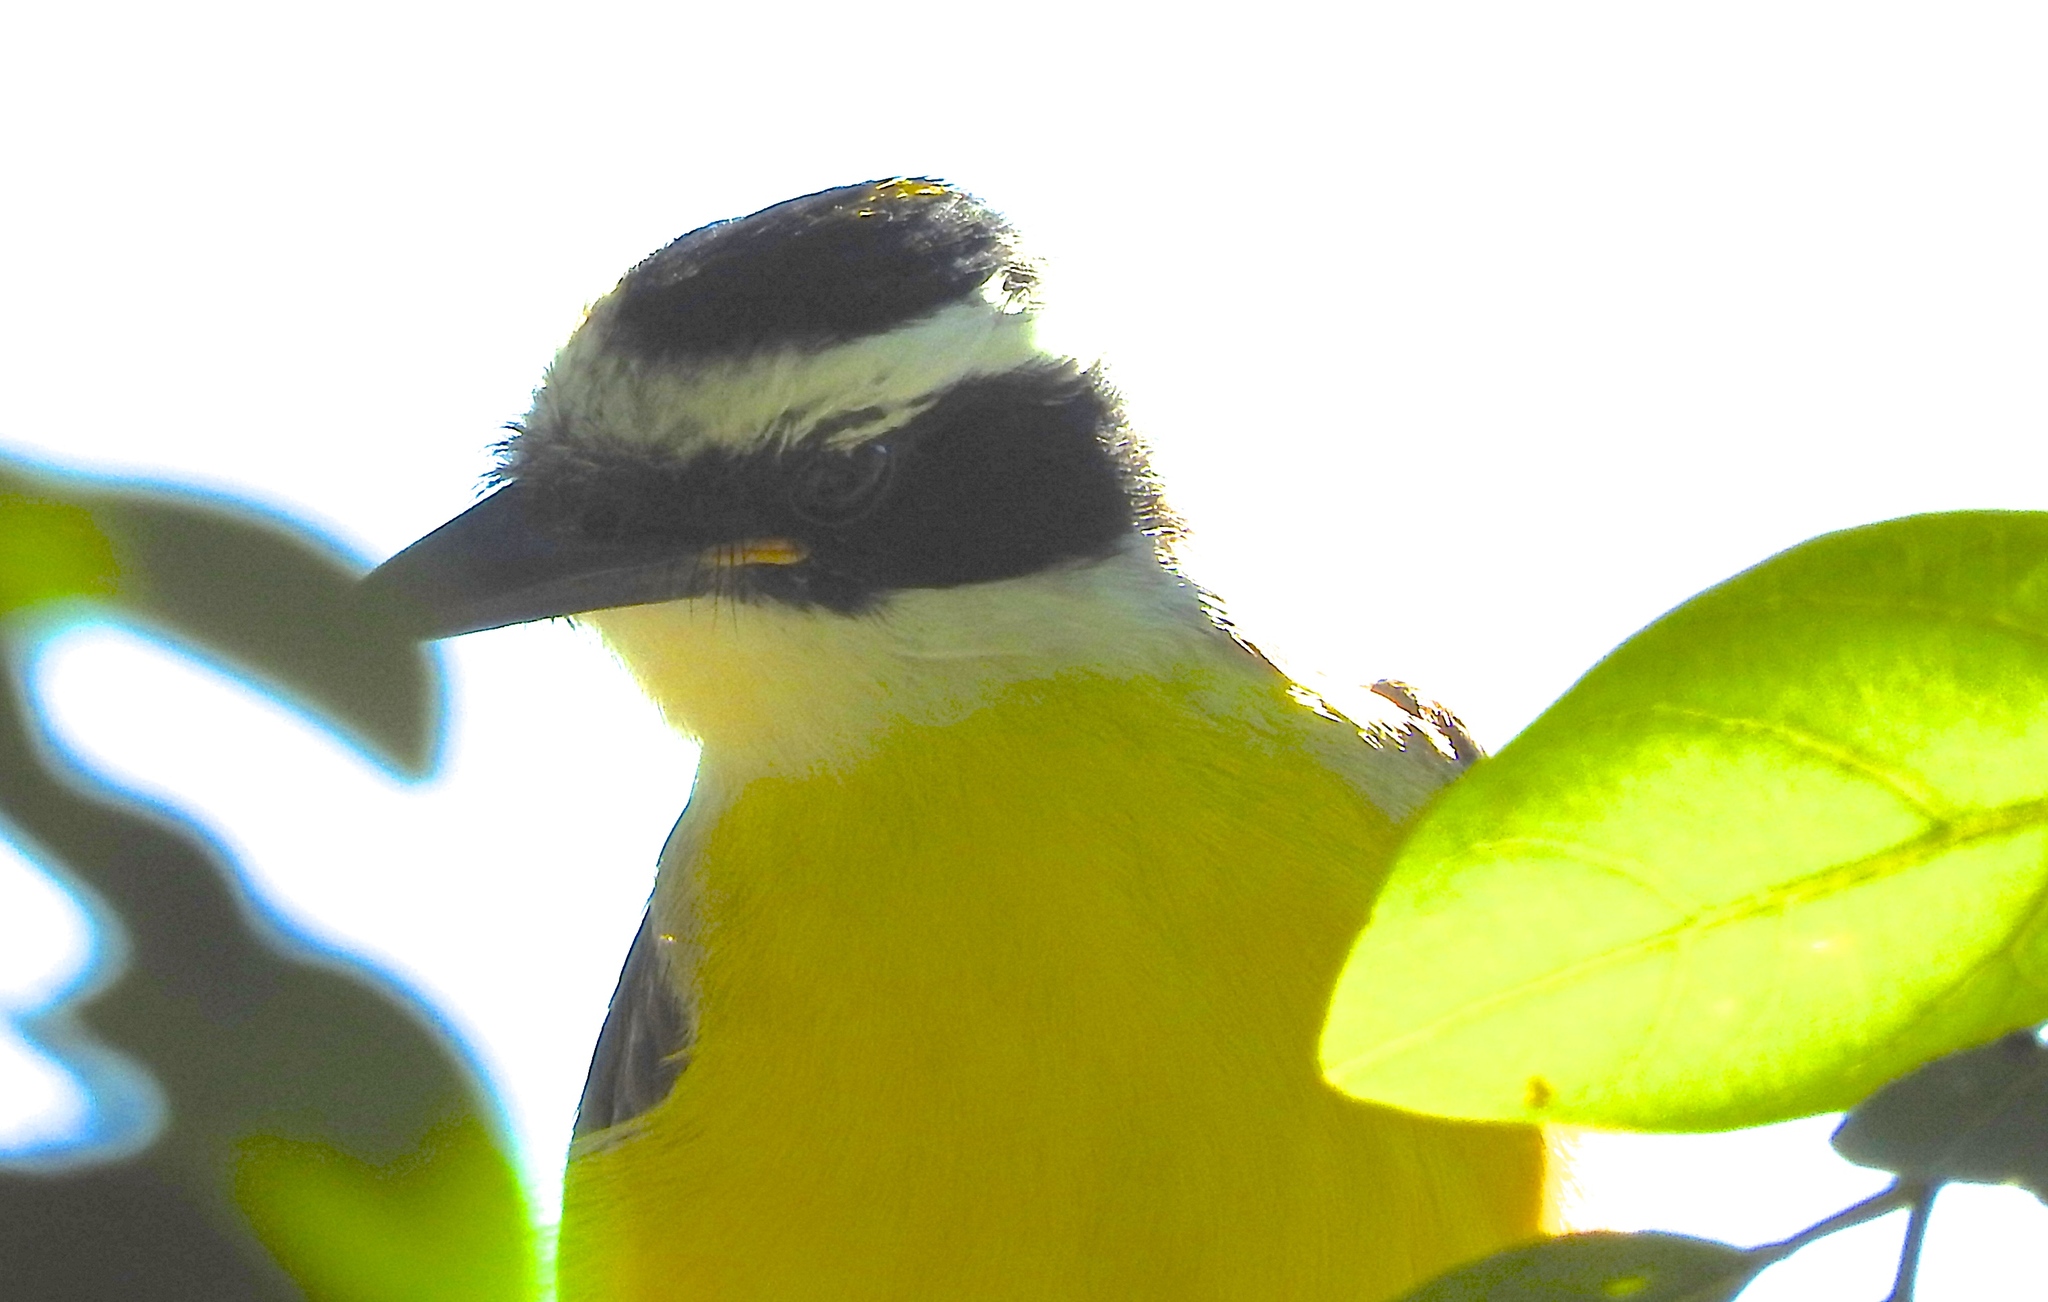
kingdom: Animalia
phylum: Chordata
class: Aves
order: Passeriformes
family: Tyrannidae
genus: Pitangus
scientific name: Pitangus sulphuratus
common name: Great kiskadee
